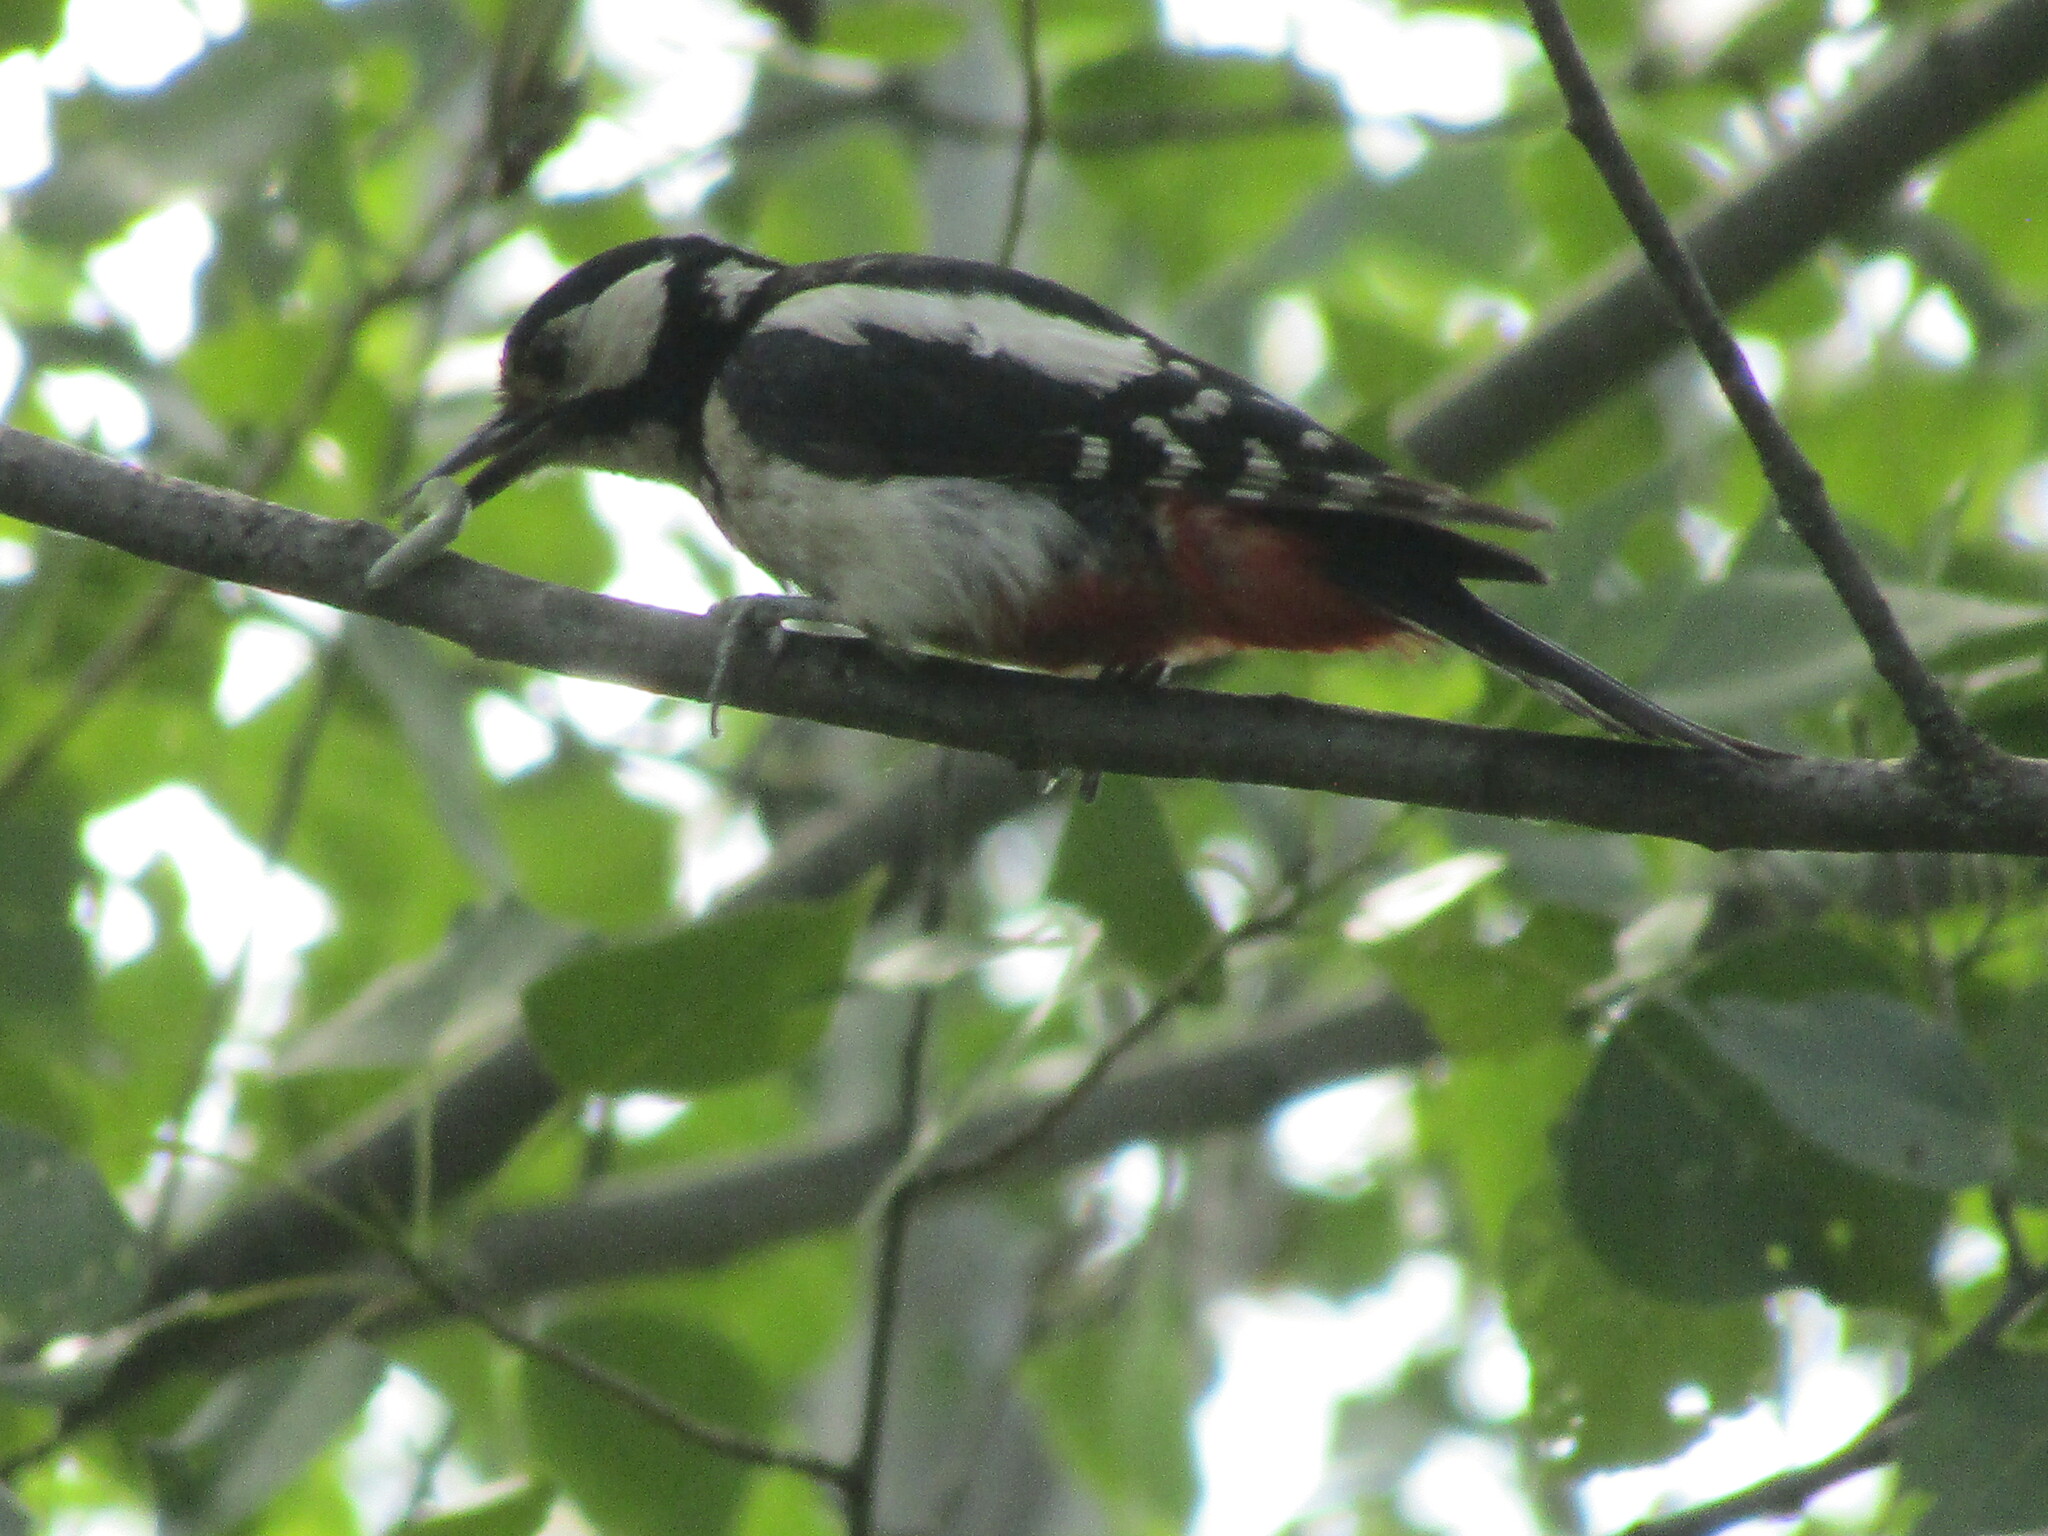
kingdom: Animalia
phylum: Chordata
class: Aves
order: Piciformes
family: Picidae
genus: Dendrocopos
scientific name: Dendrocopos major
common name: Great spotted woodpecker
